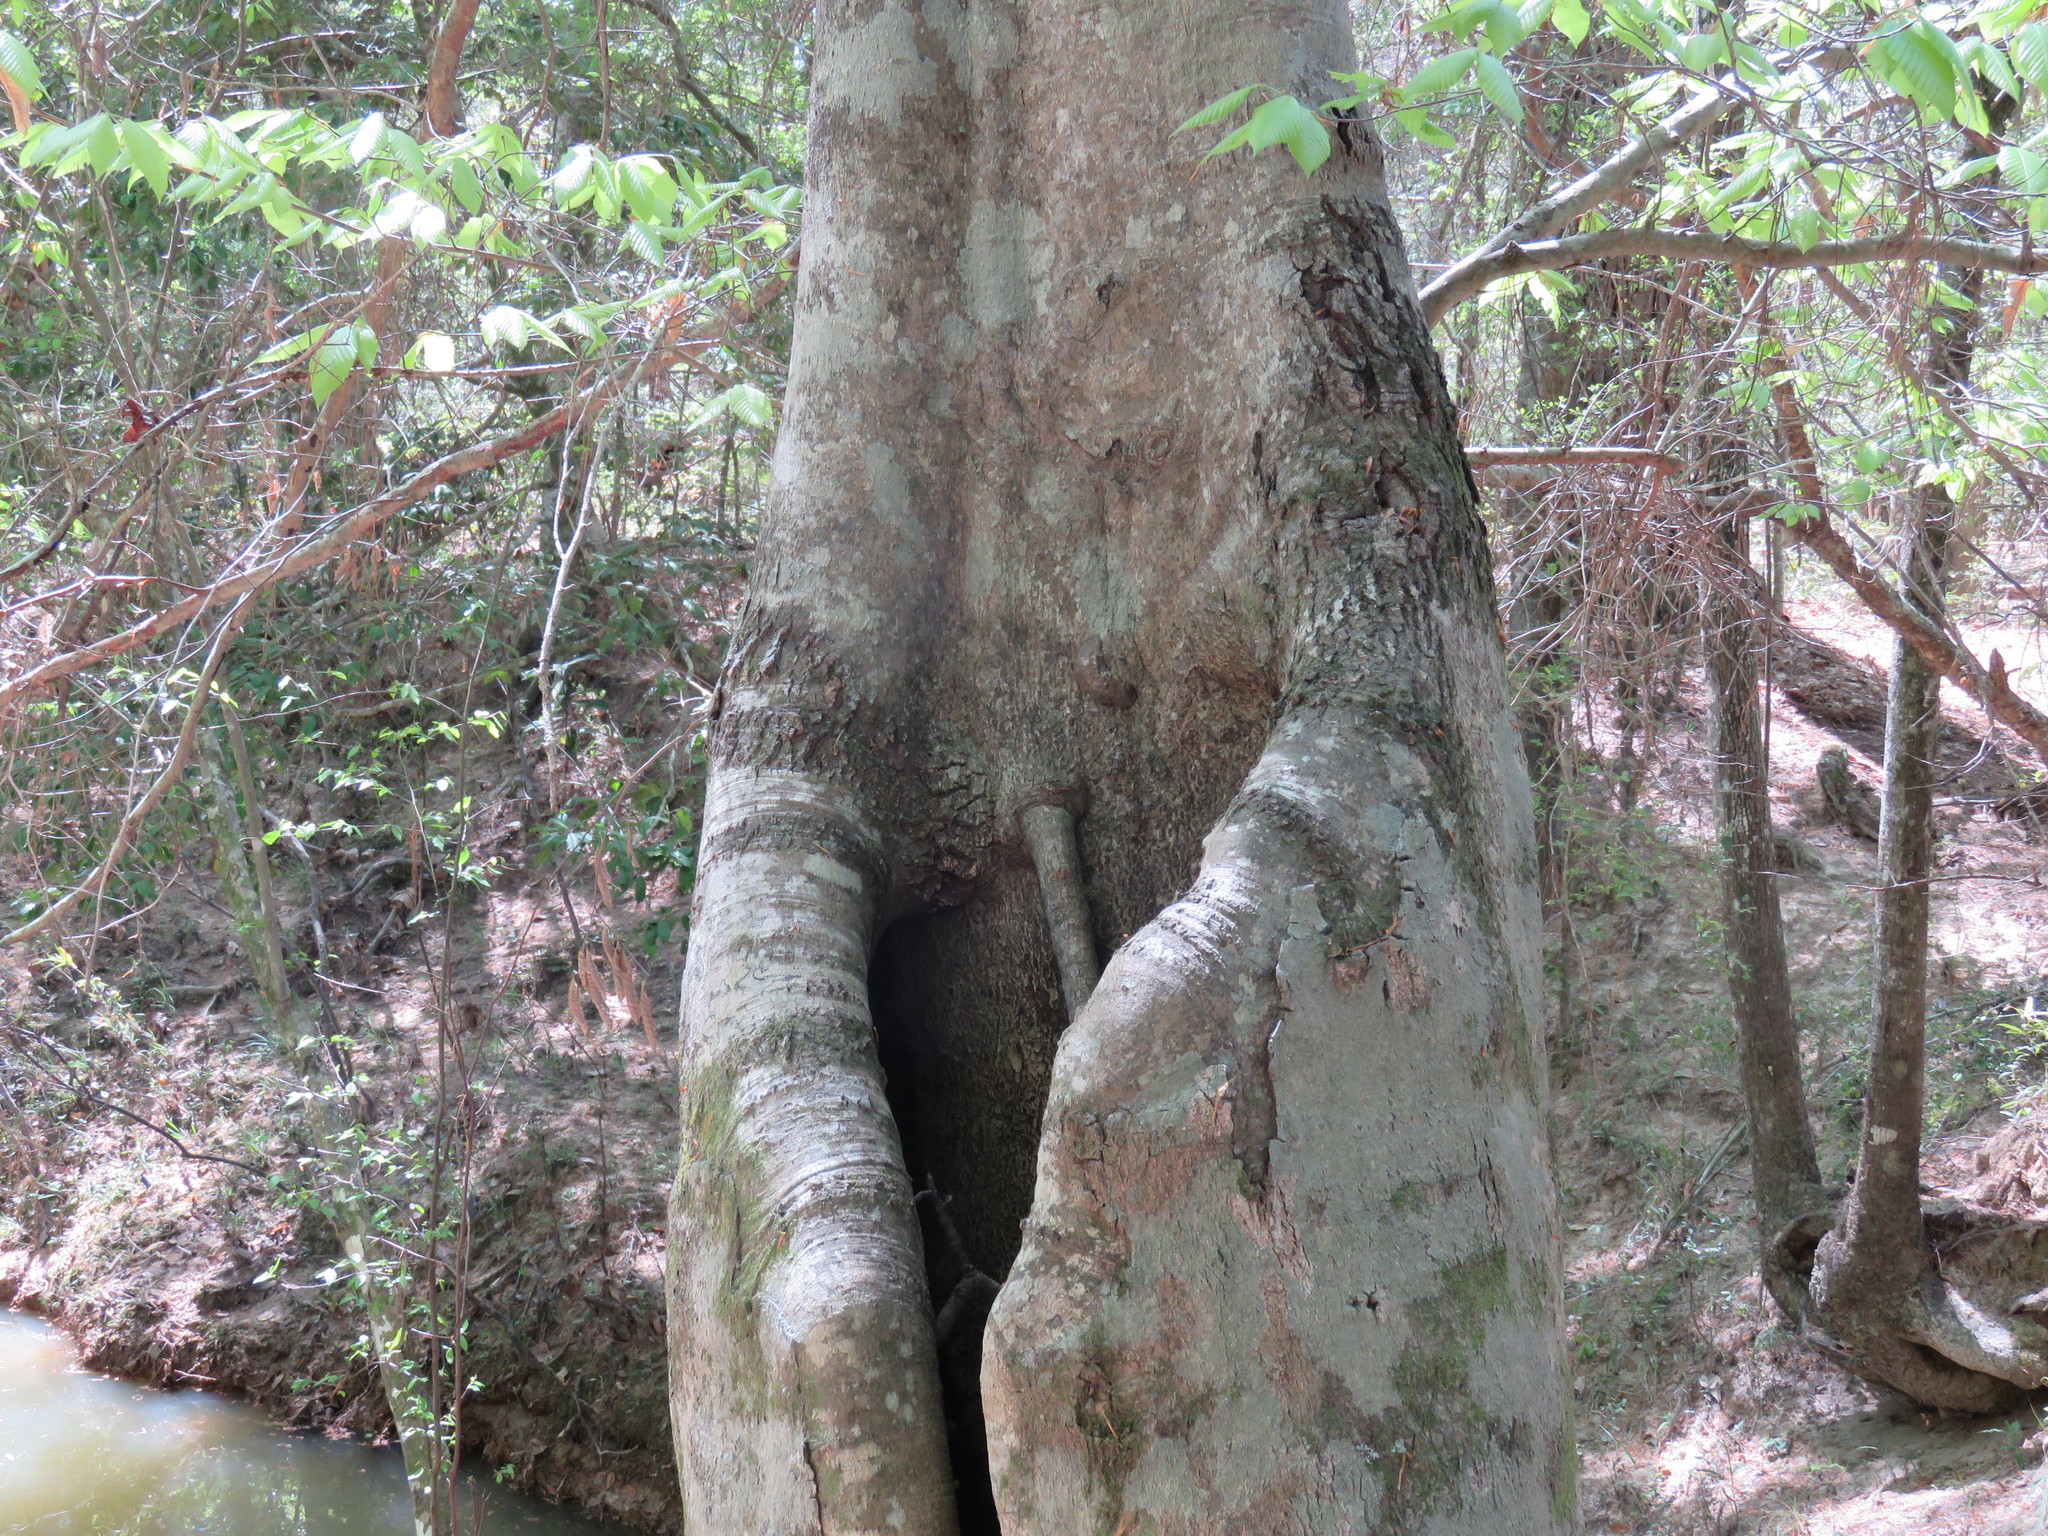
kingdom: Plantae
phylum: Tracheophyta
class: Magnoliopsida
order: Fagales
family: Fagaceae
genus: Fagus
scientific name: Fagus grandifolia
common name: American beech
